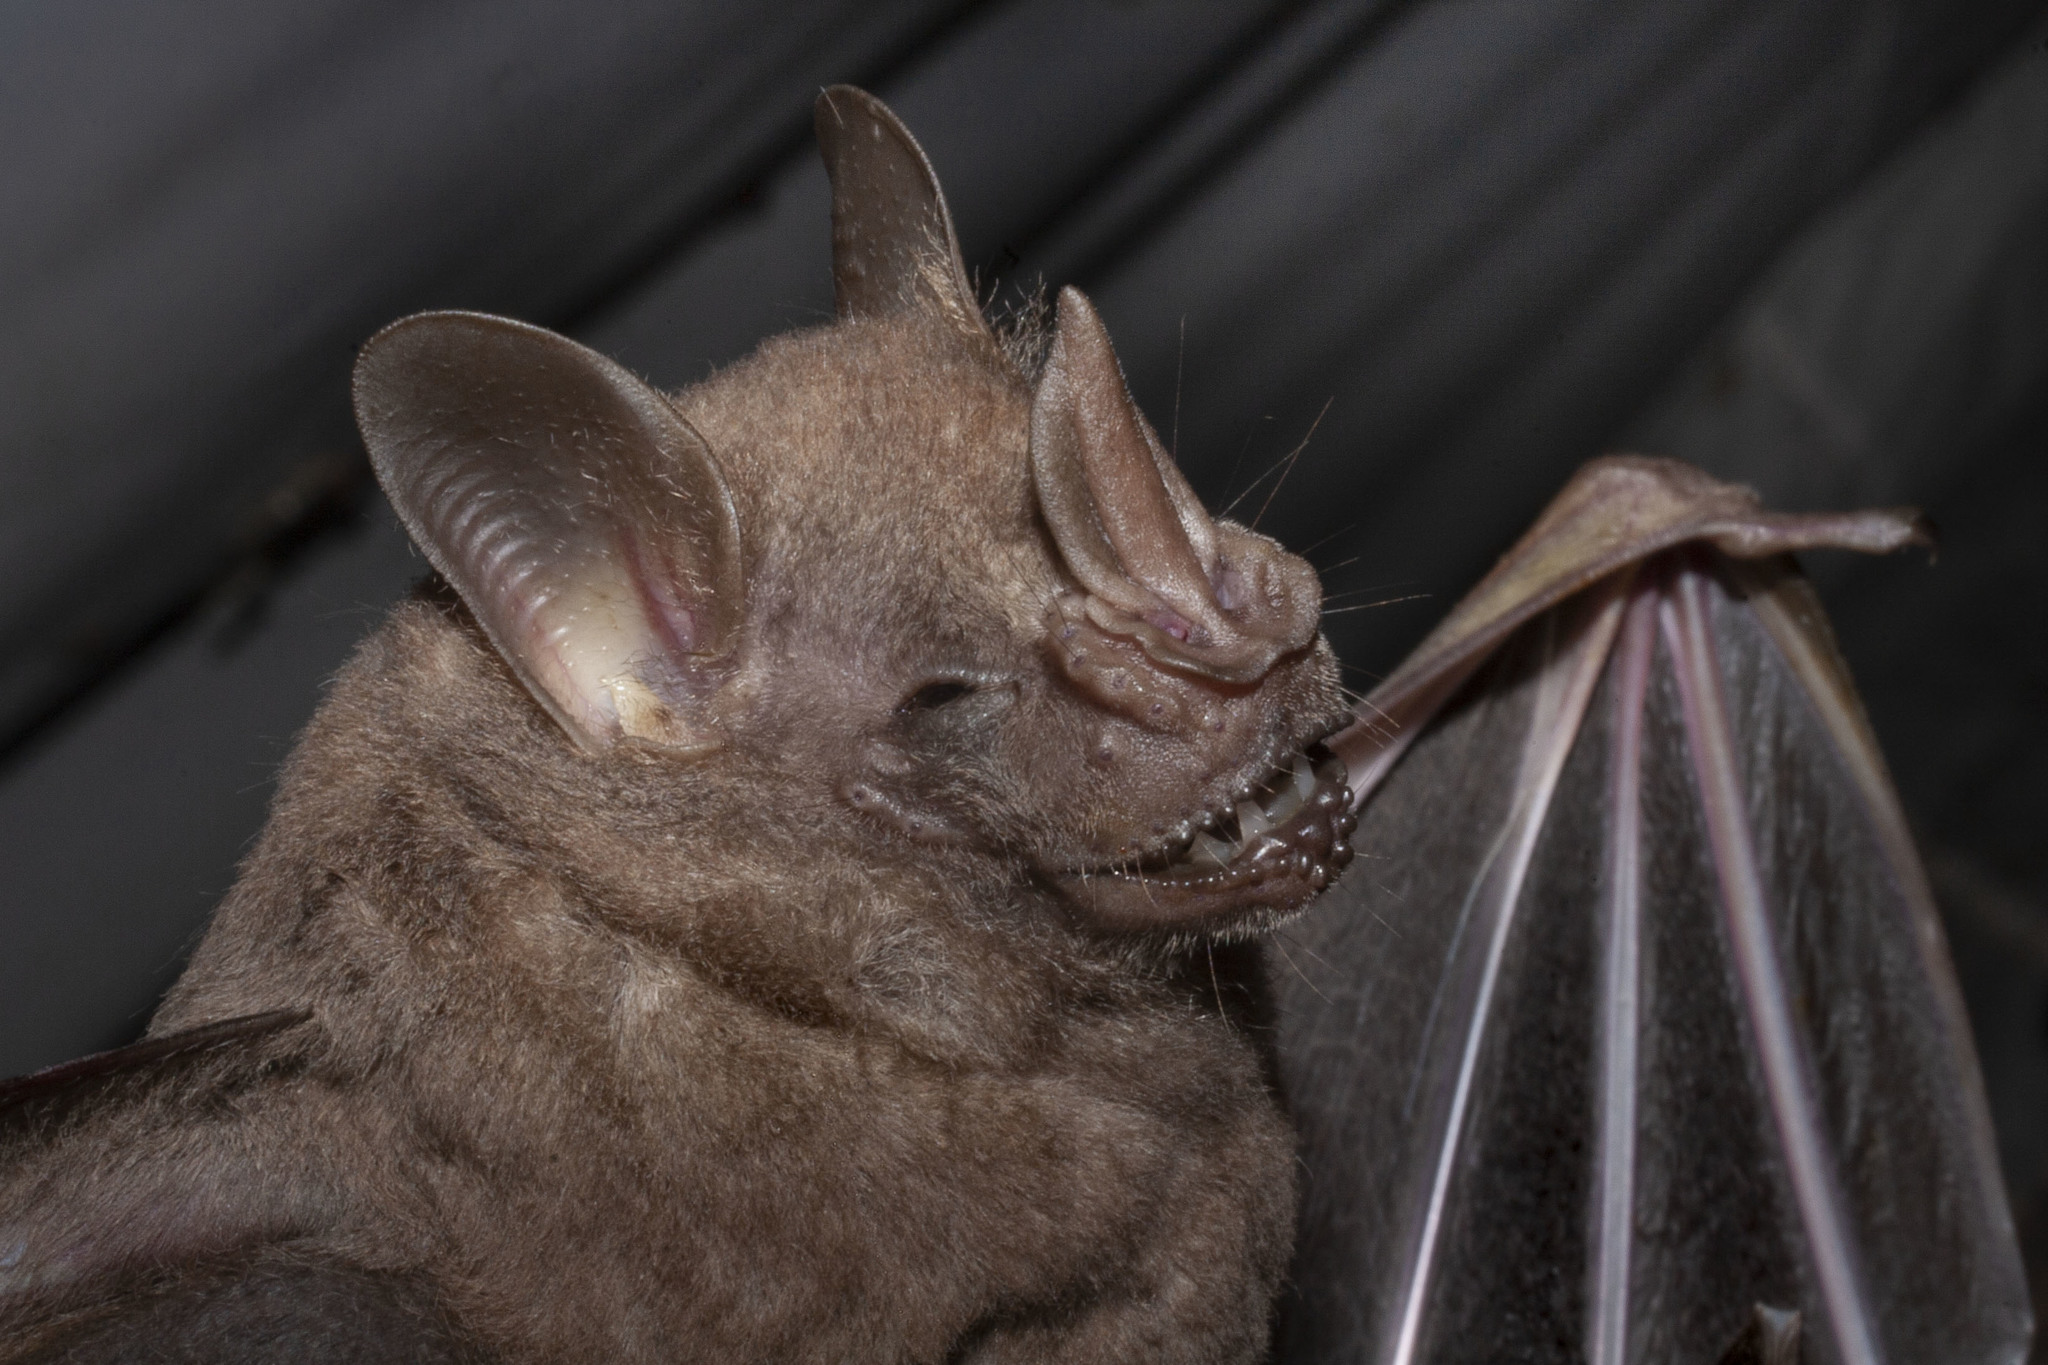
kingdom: Animalia
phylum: Chordata
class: Mammalia
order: Chiroptera
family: Phyllostomidae
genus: Artibeus
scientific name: Artibeus concolor
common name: Brown fruit-eating bat
